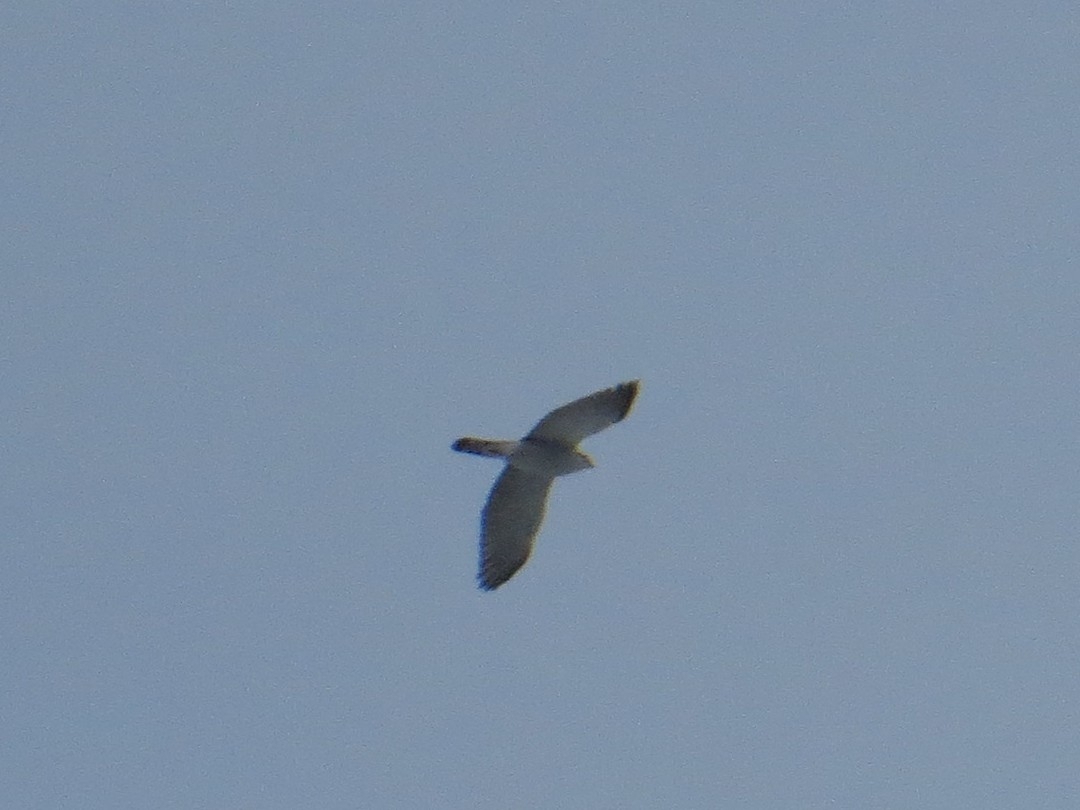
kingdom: Animalia
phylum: Chordata
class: Aves
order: Accipitriformes
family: Accipitridae
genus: Accipiter
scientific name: Accipiter gentilis
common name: Northern goshawk
